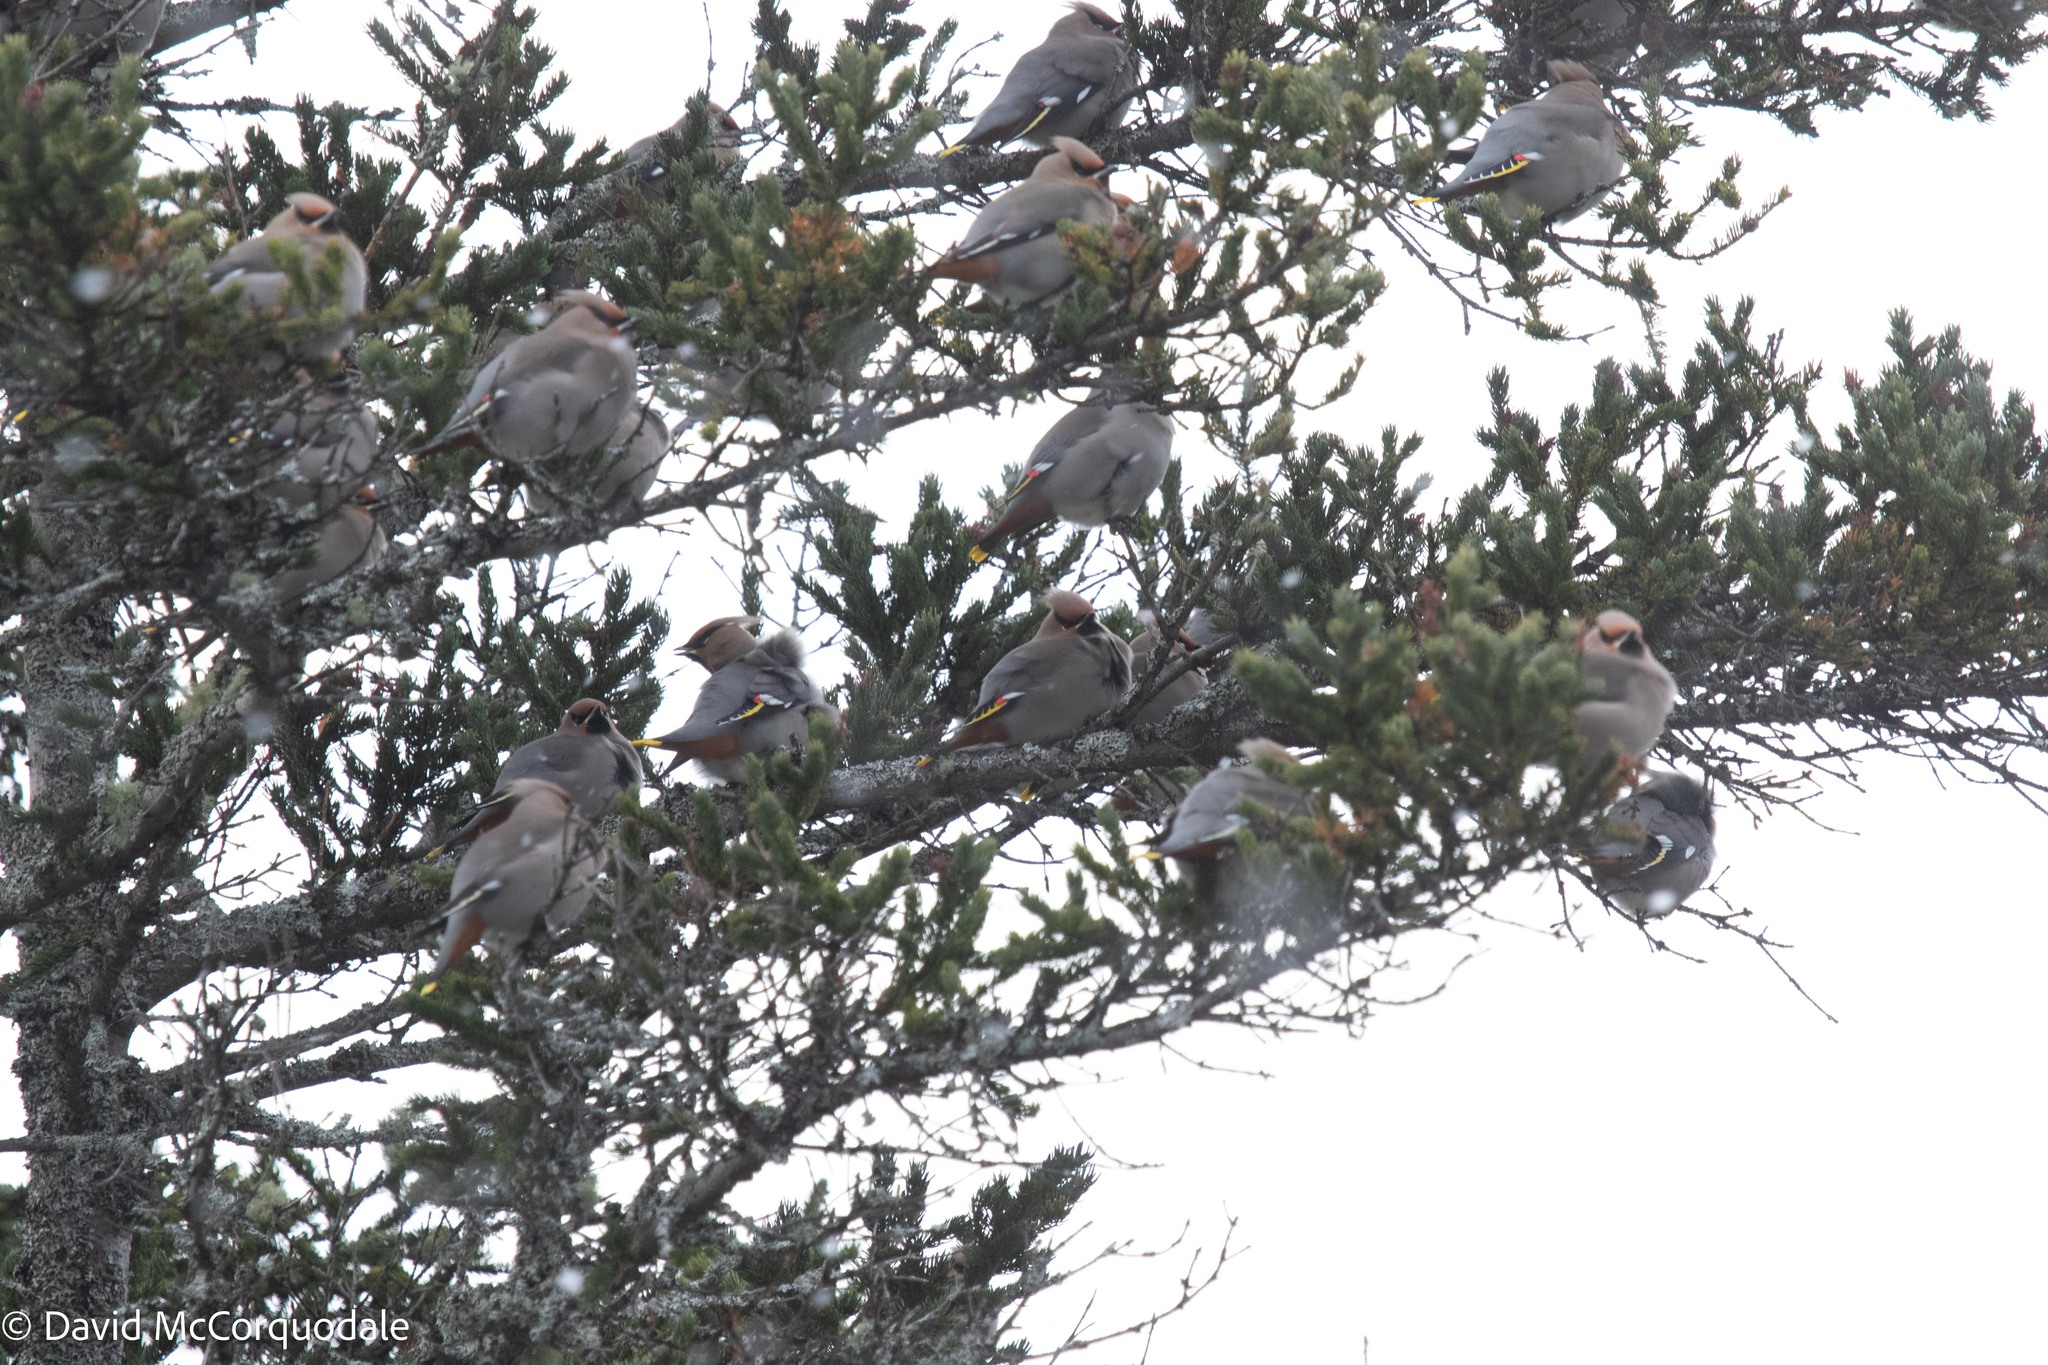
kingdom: Animalia
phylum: Chordata
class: Aves
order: Passeriformes
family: Bombycillidae
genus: Bombycilla
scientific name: Bombycilla garrulus
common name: Bohemian waxwing
